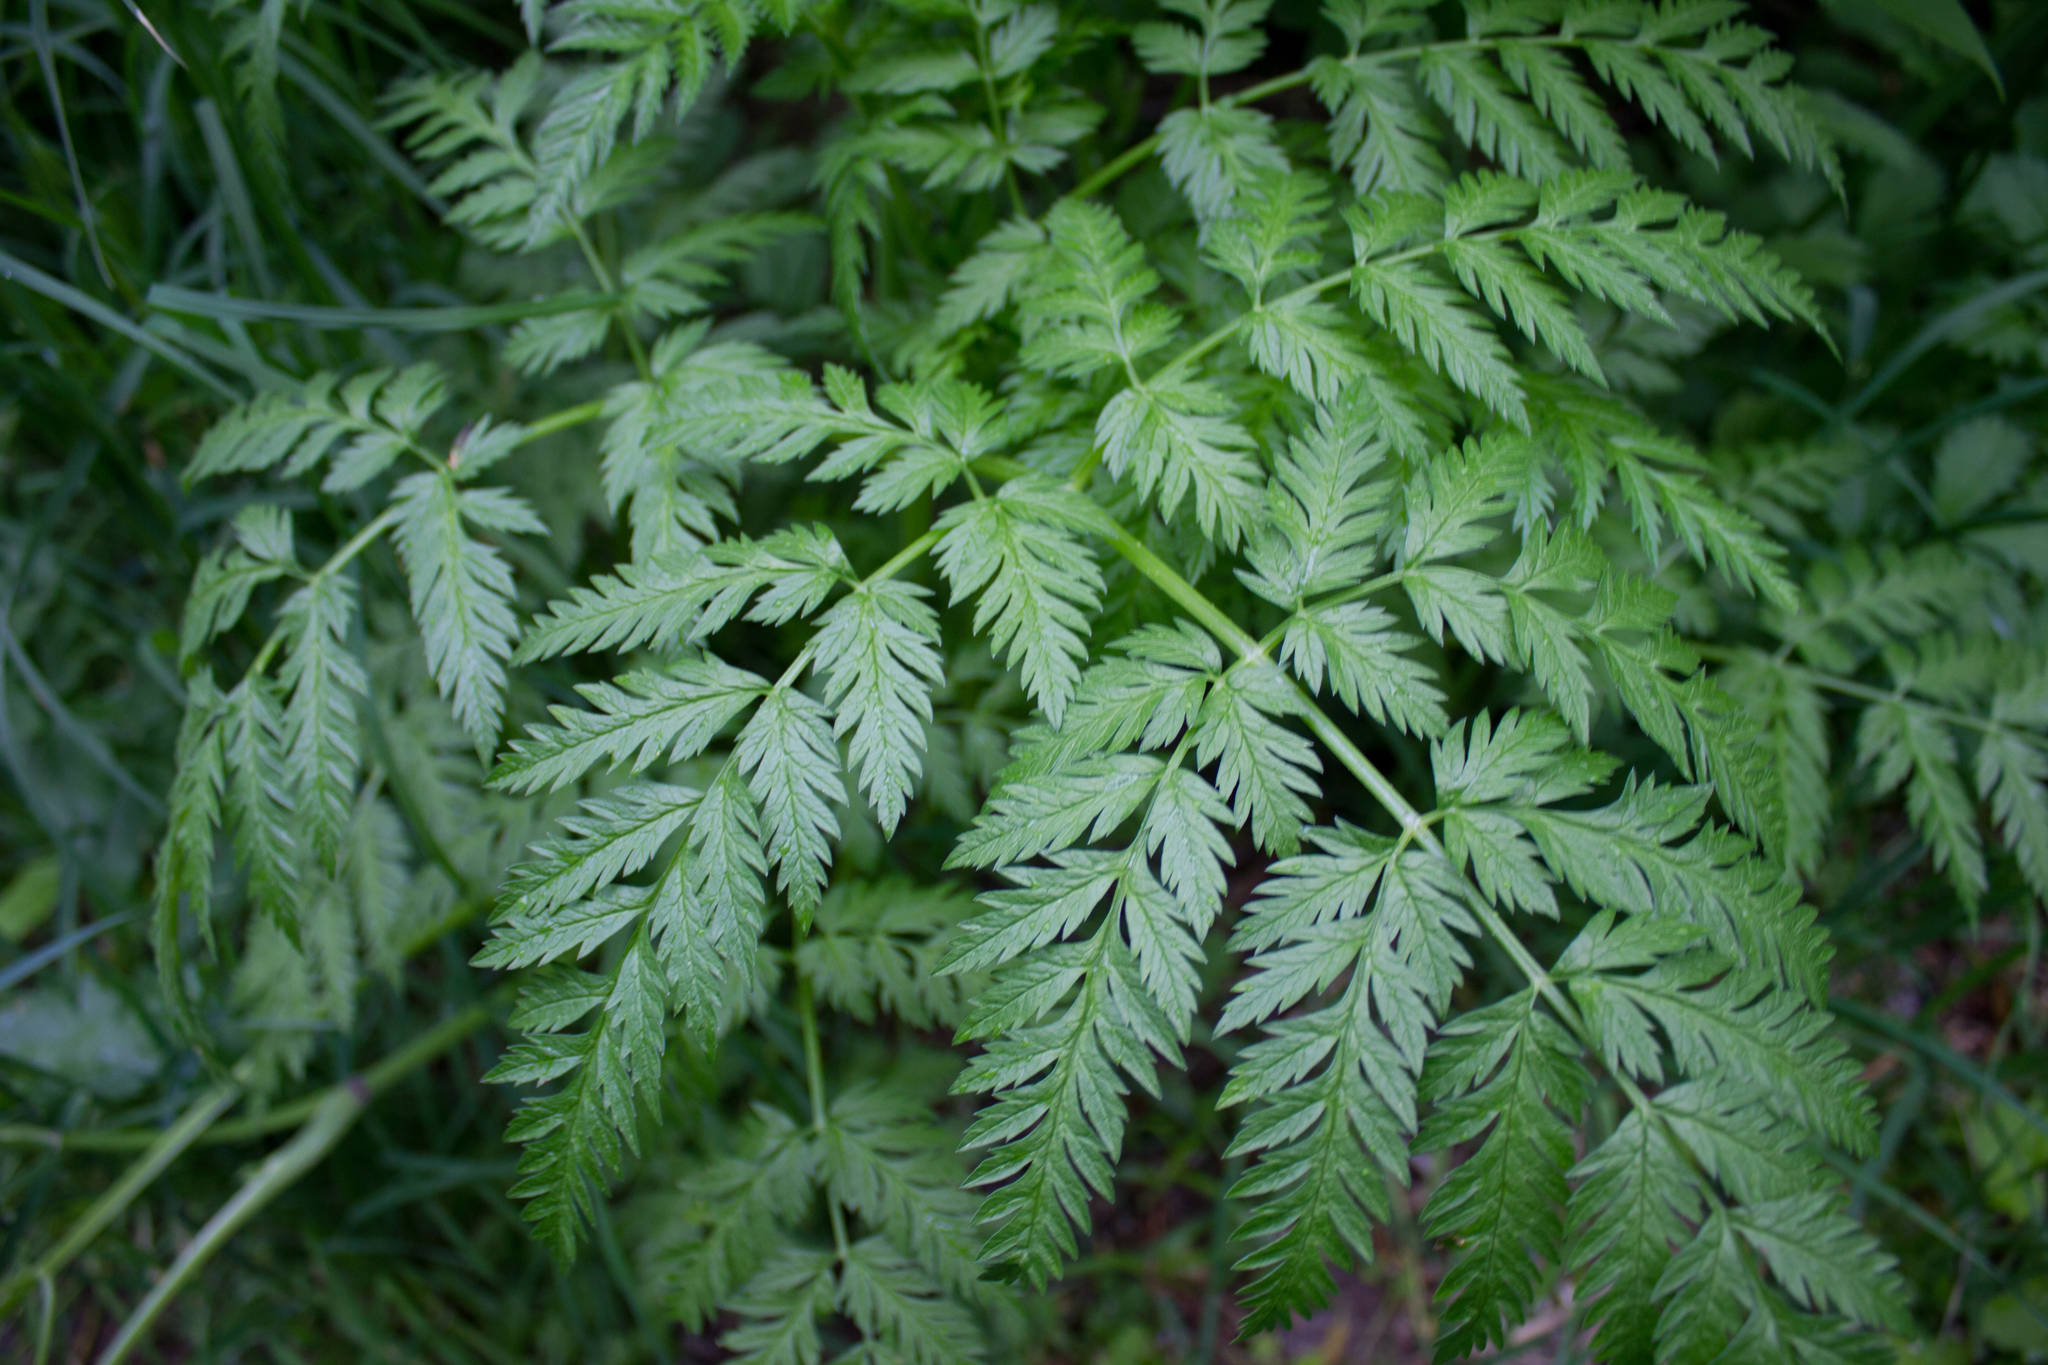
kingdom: Plantae
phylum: Tracheophyta
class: Magnoliopsida
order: Apiales
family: Apiaceae
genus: Anthriscus
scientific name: Anthriscus sylvestris
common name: Cow parsley
